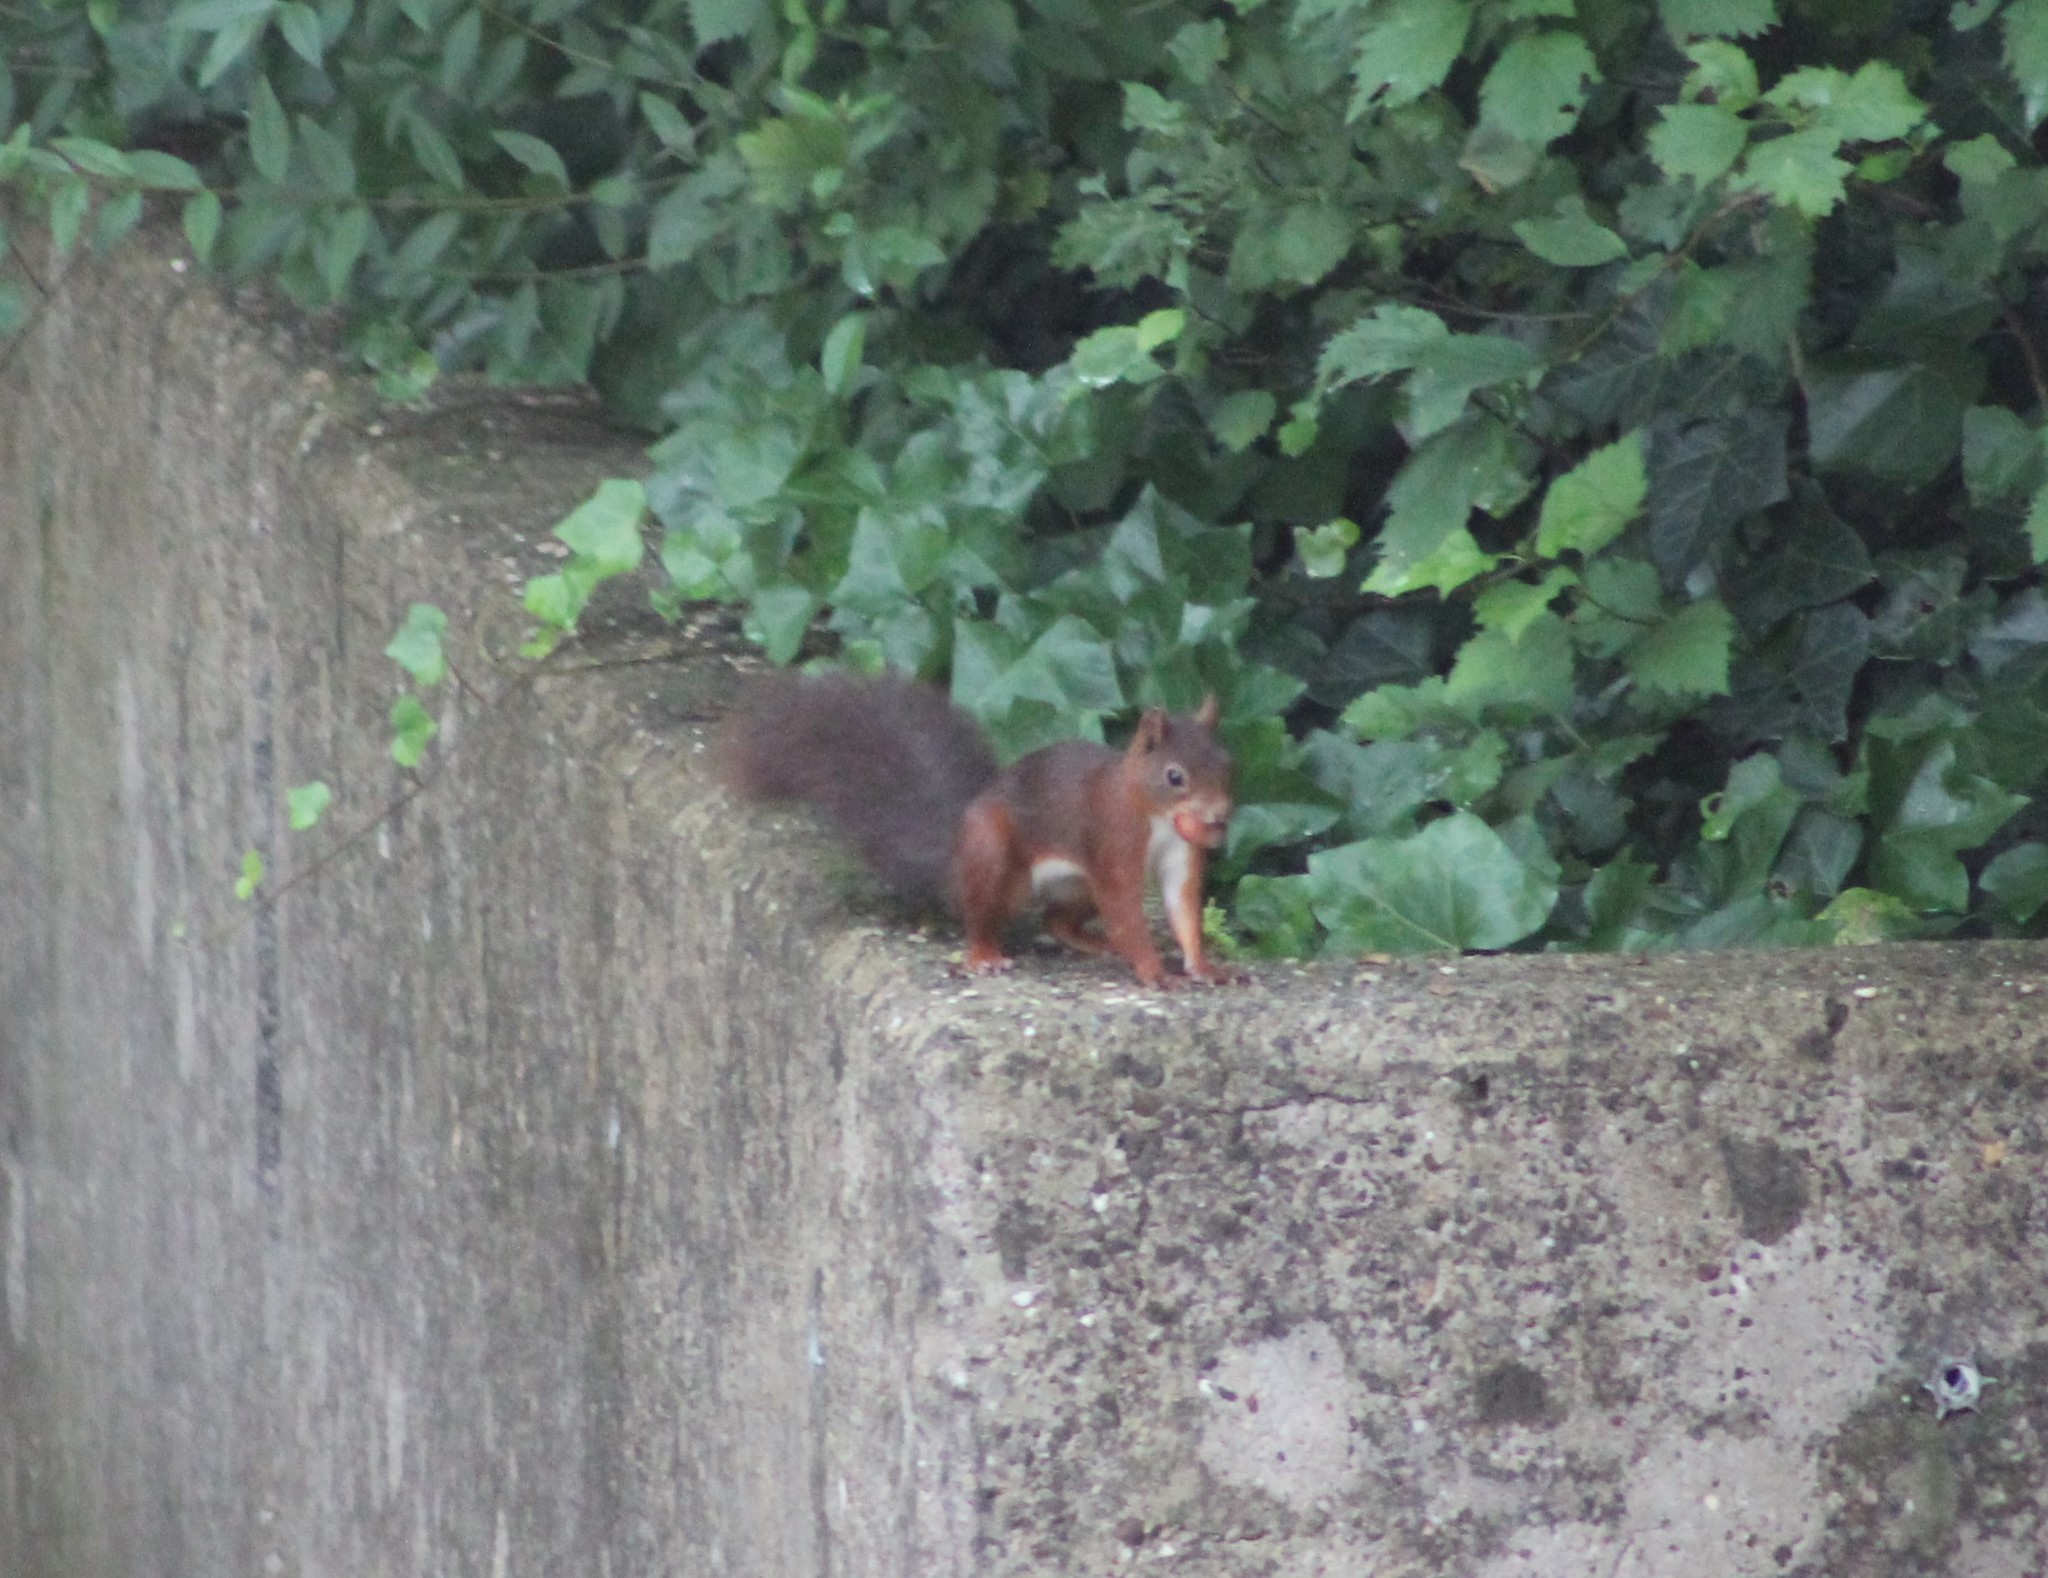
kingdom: Animalia
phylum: Chordata
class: Mammalia
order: Rodentia
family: Sciuridae
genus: Sciurus
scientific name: Sciurus vulgaris
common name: Eurasian red squirrel
